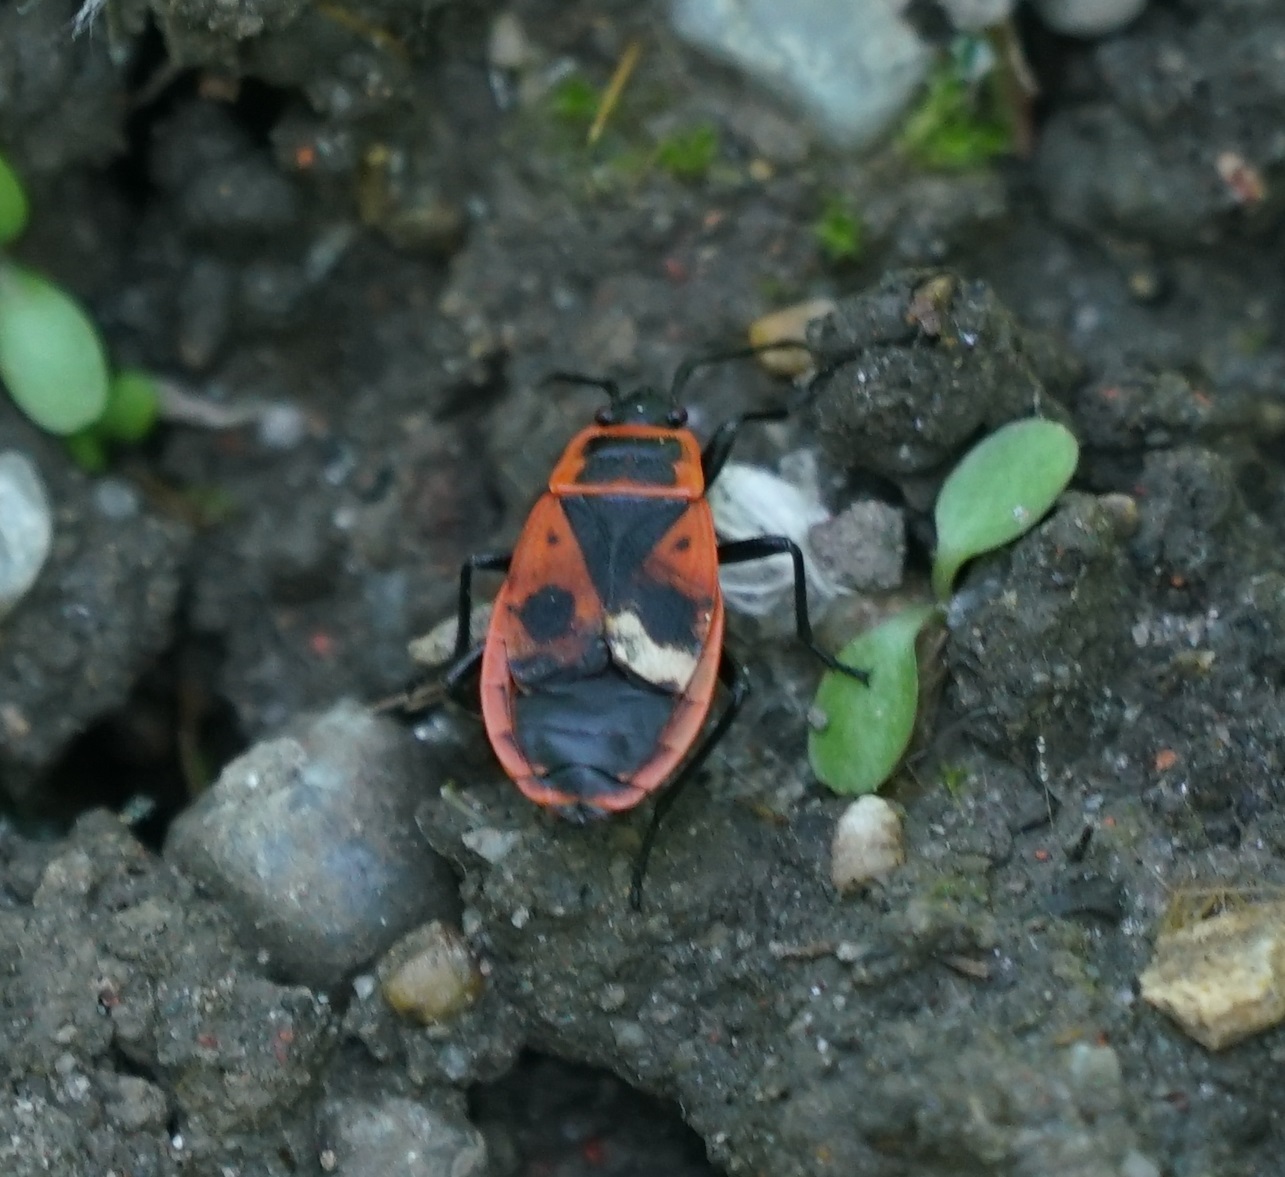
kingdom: Animalia
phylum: Arthropoda
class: Insecta
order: Hemiptera
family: Pyrrhocoridae
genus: Pyrrhocoris
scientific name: Pyrrhocoris apterus
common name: Firebug
